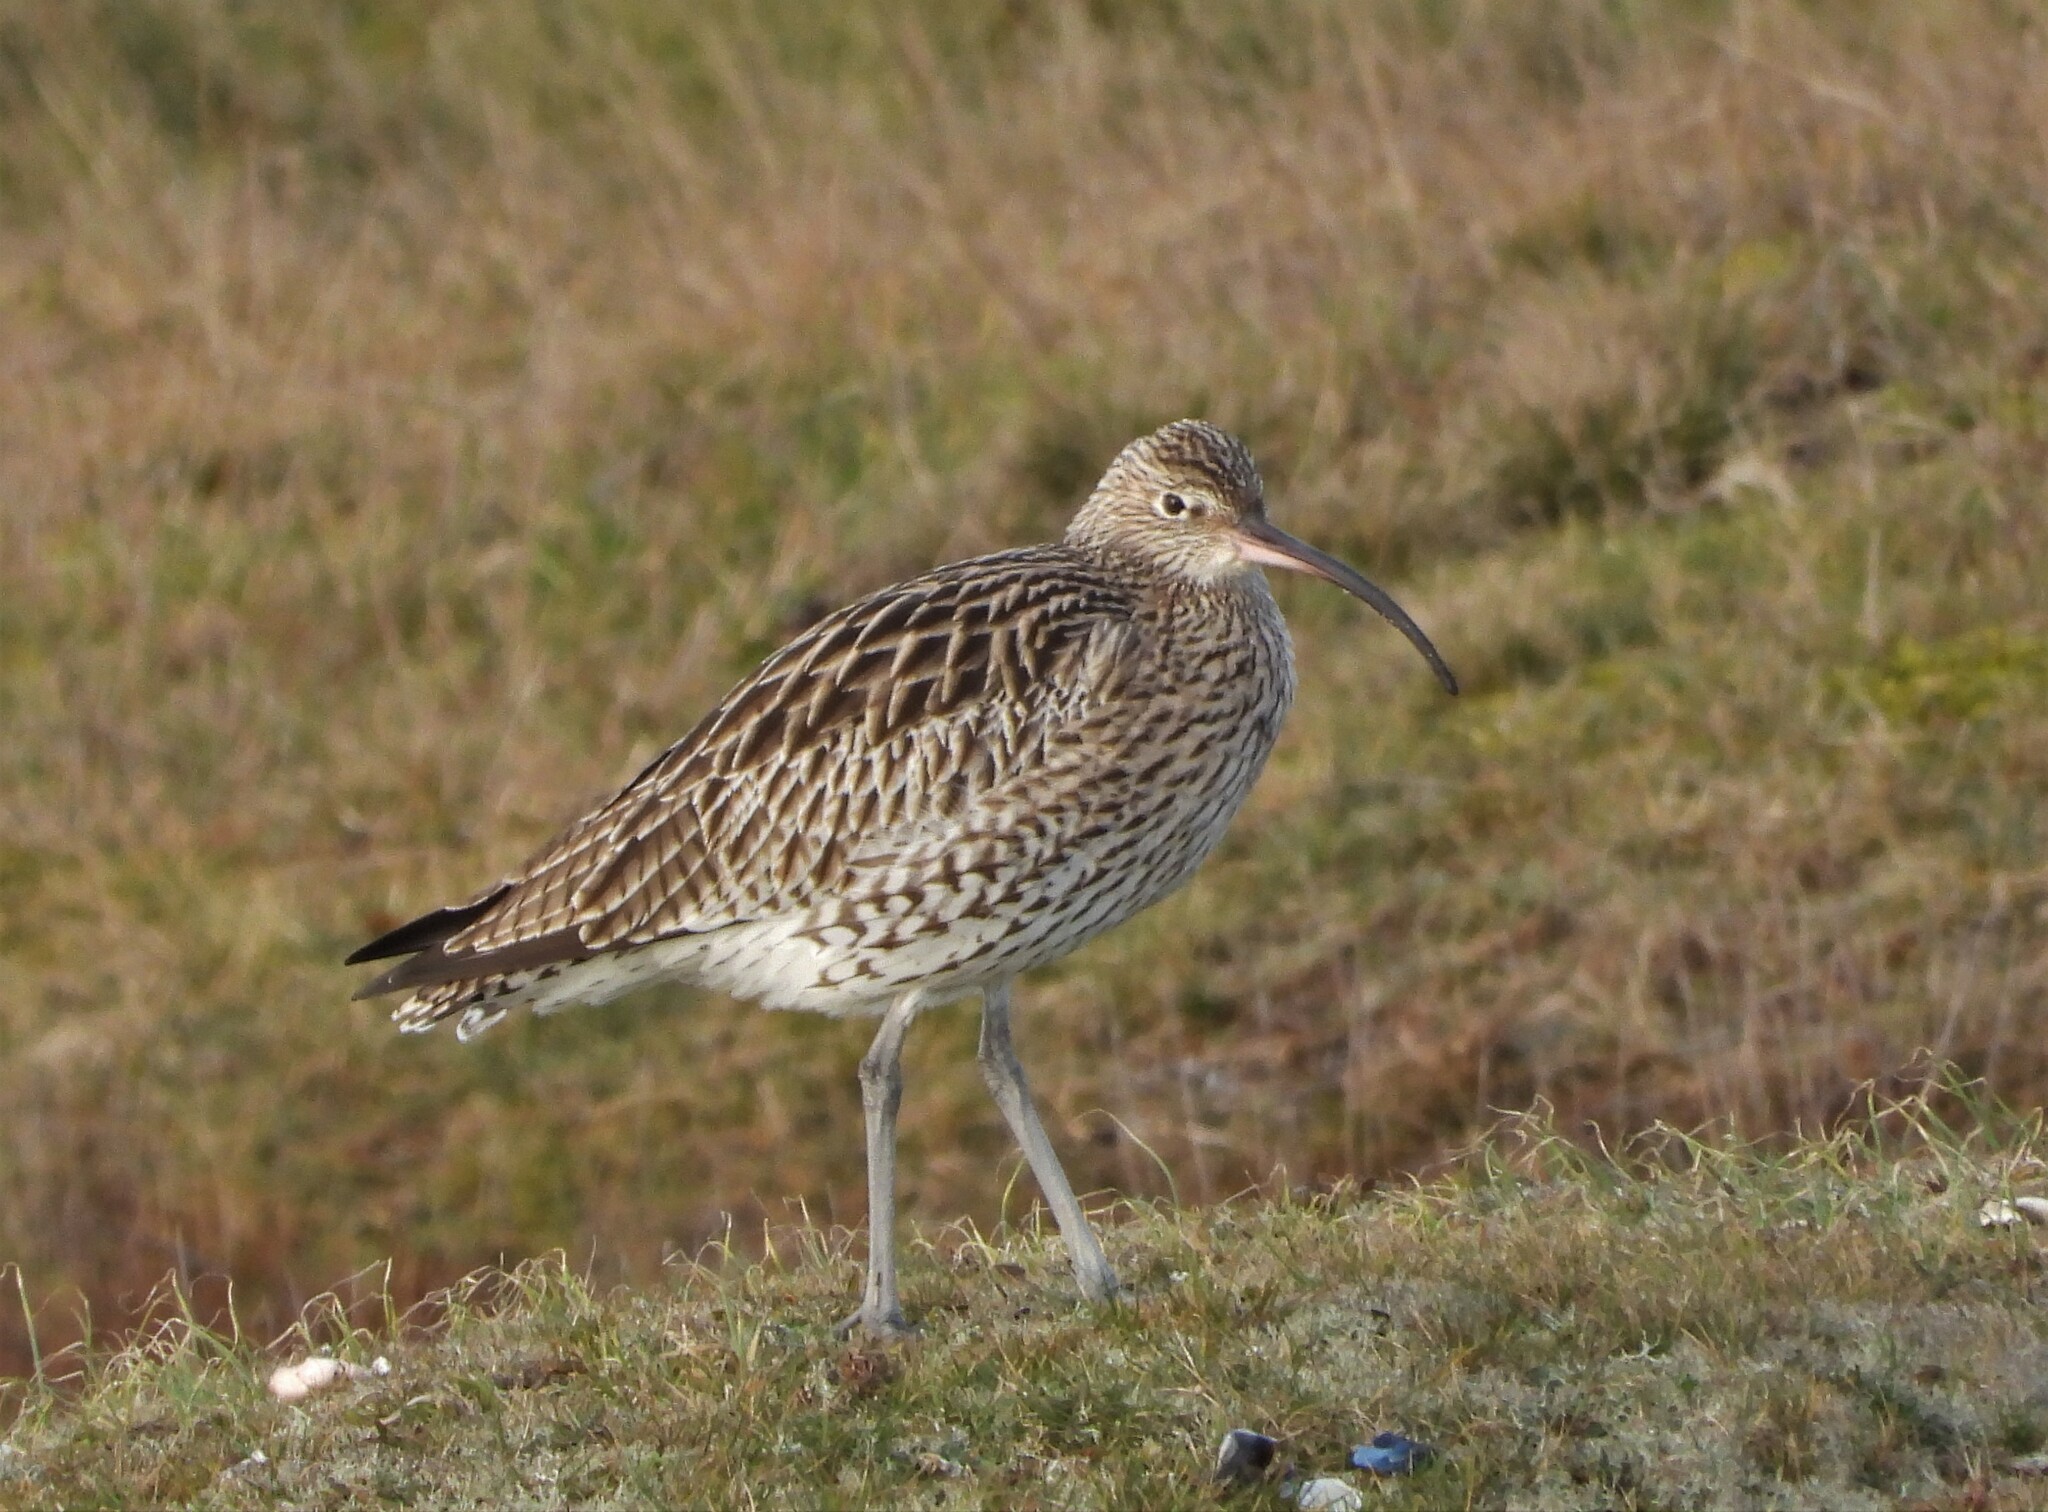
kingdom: Animalia
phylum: Chordata
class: Aves
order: Charadriiformes
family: Scolopacidae
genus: Numenius
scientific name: Numenius arquata
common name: Eurasian curlew
